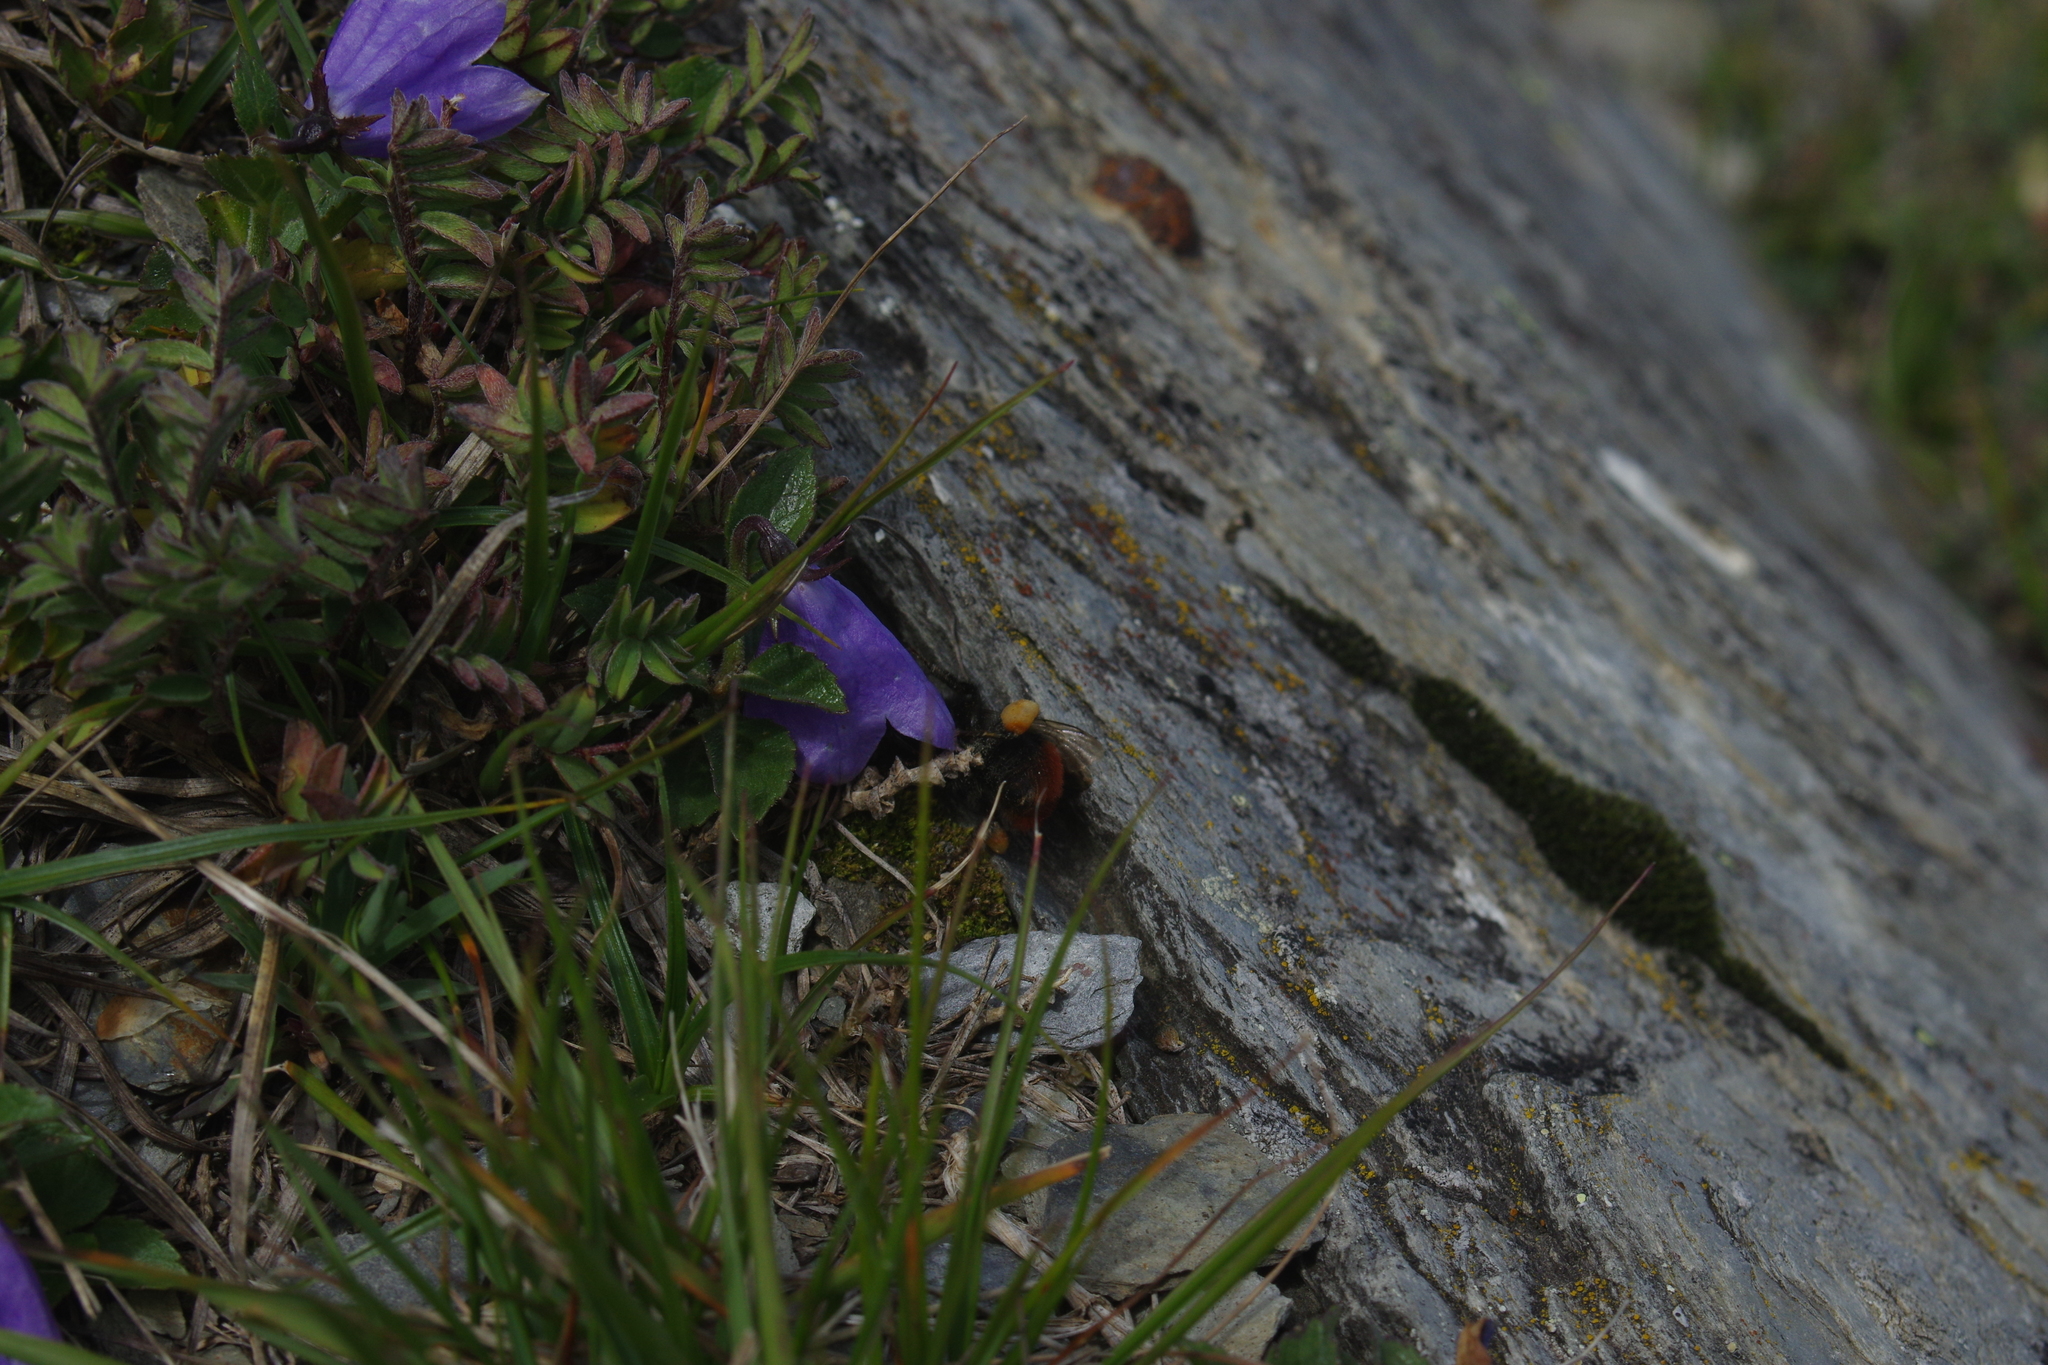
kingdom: Animalia
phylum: Arthropoda
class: Insecta
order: Hymenoptera
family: Apidae
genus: Bombus
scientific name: Bombus formosellus
